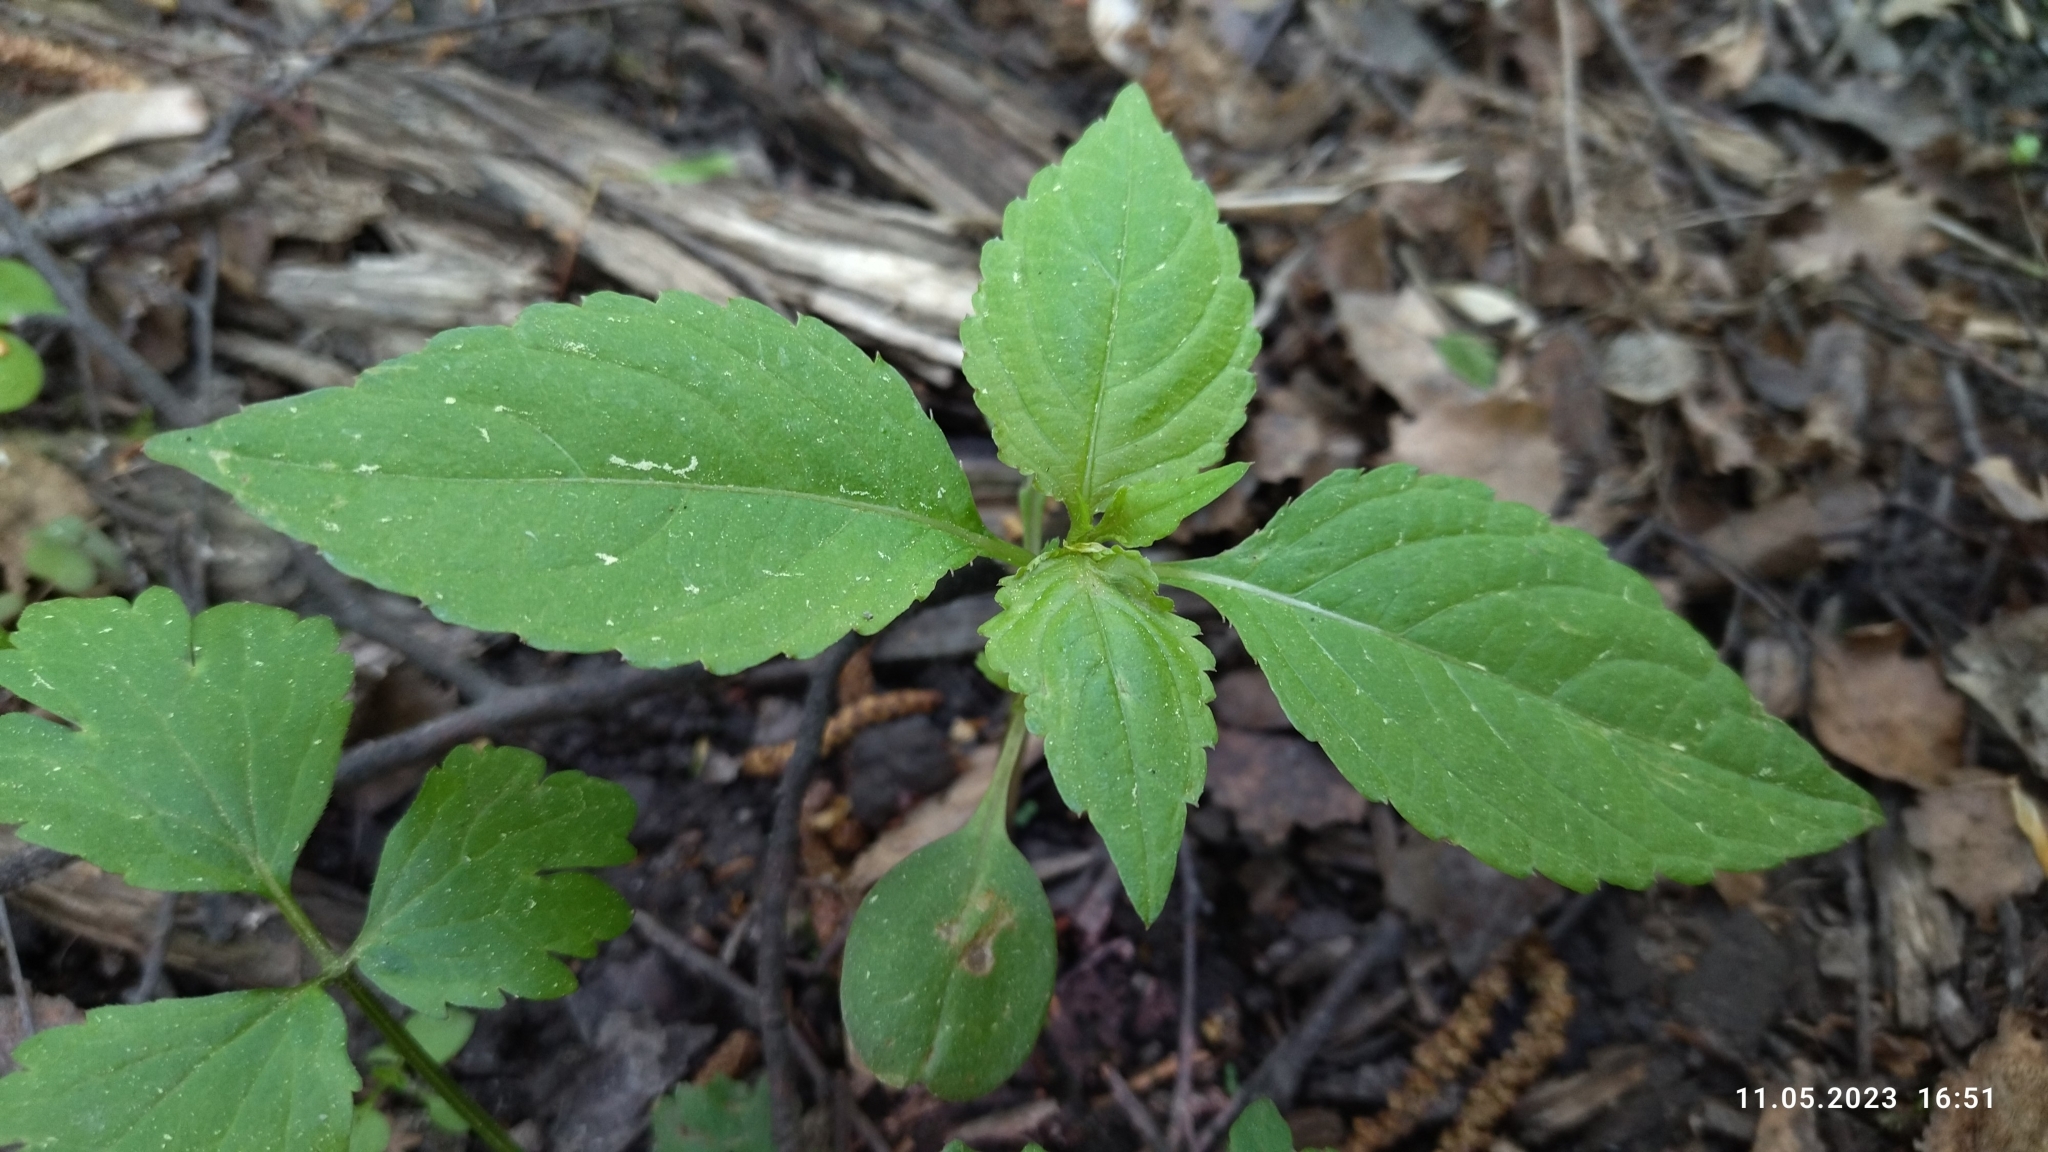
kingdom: Plantae
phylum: Tracheophyta
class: Magnoliopsida
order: Ericales
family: Balsaminaceae
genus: Impatiens
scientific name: Impatiens parviflora
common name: Small balsam
